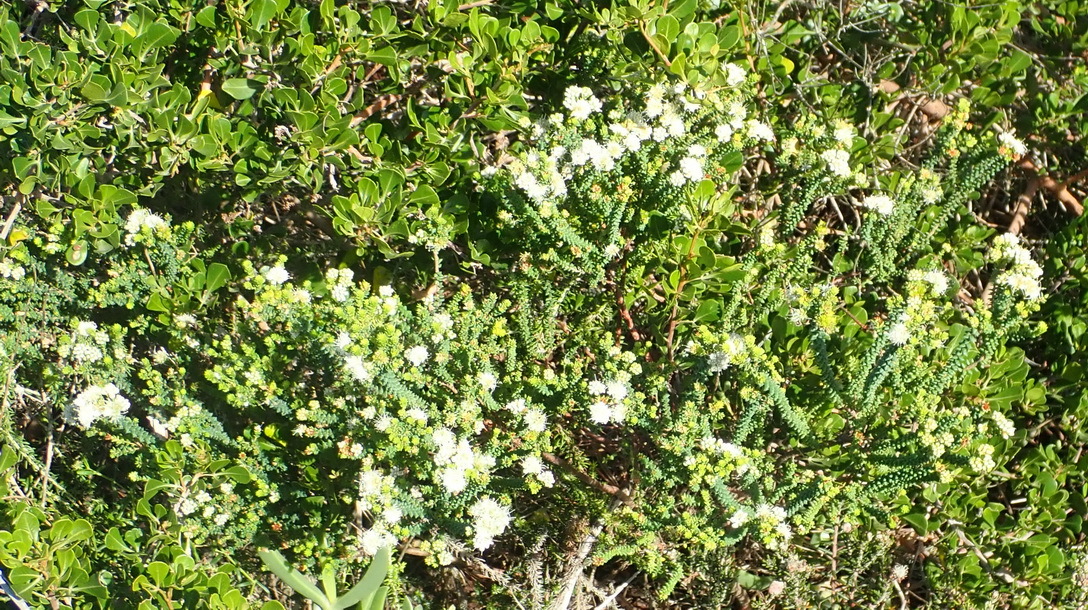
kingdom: Plantae
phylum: Tracheophyta
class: Magnoliopsida
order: Sapindales
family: Rutaceae
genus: Agathosma
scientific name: Agathosma apiculata
